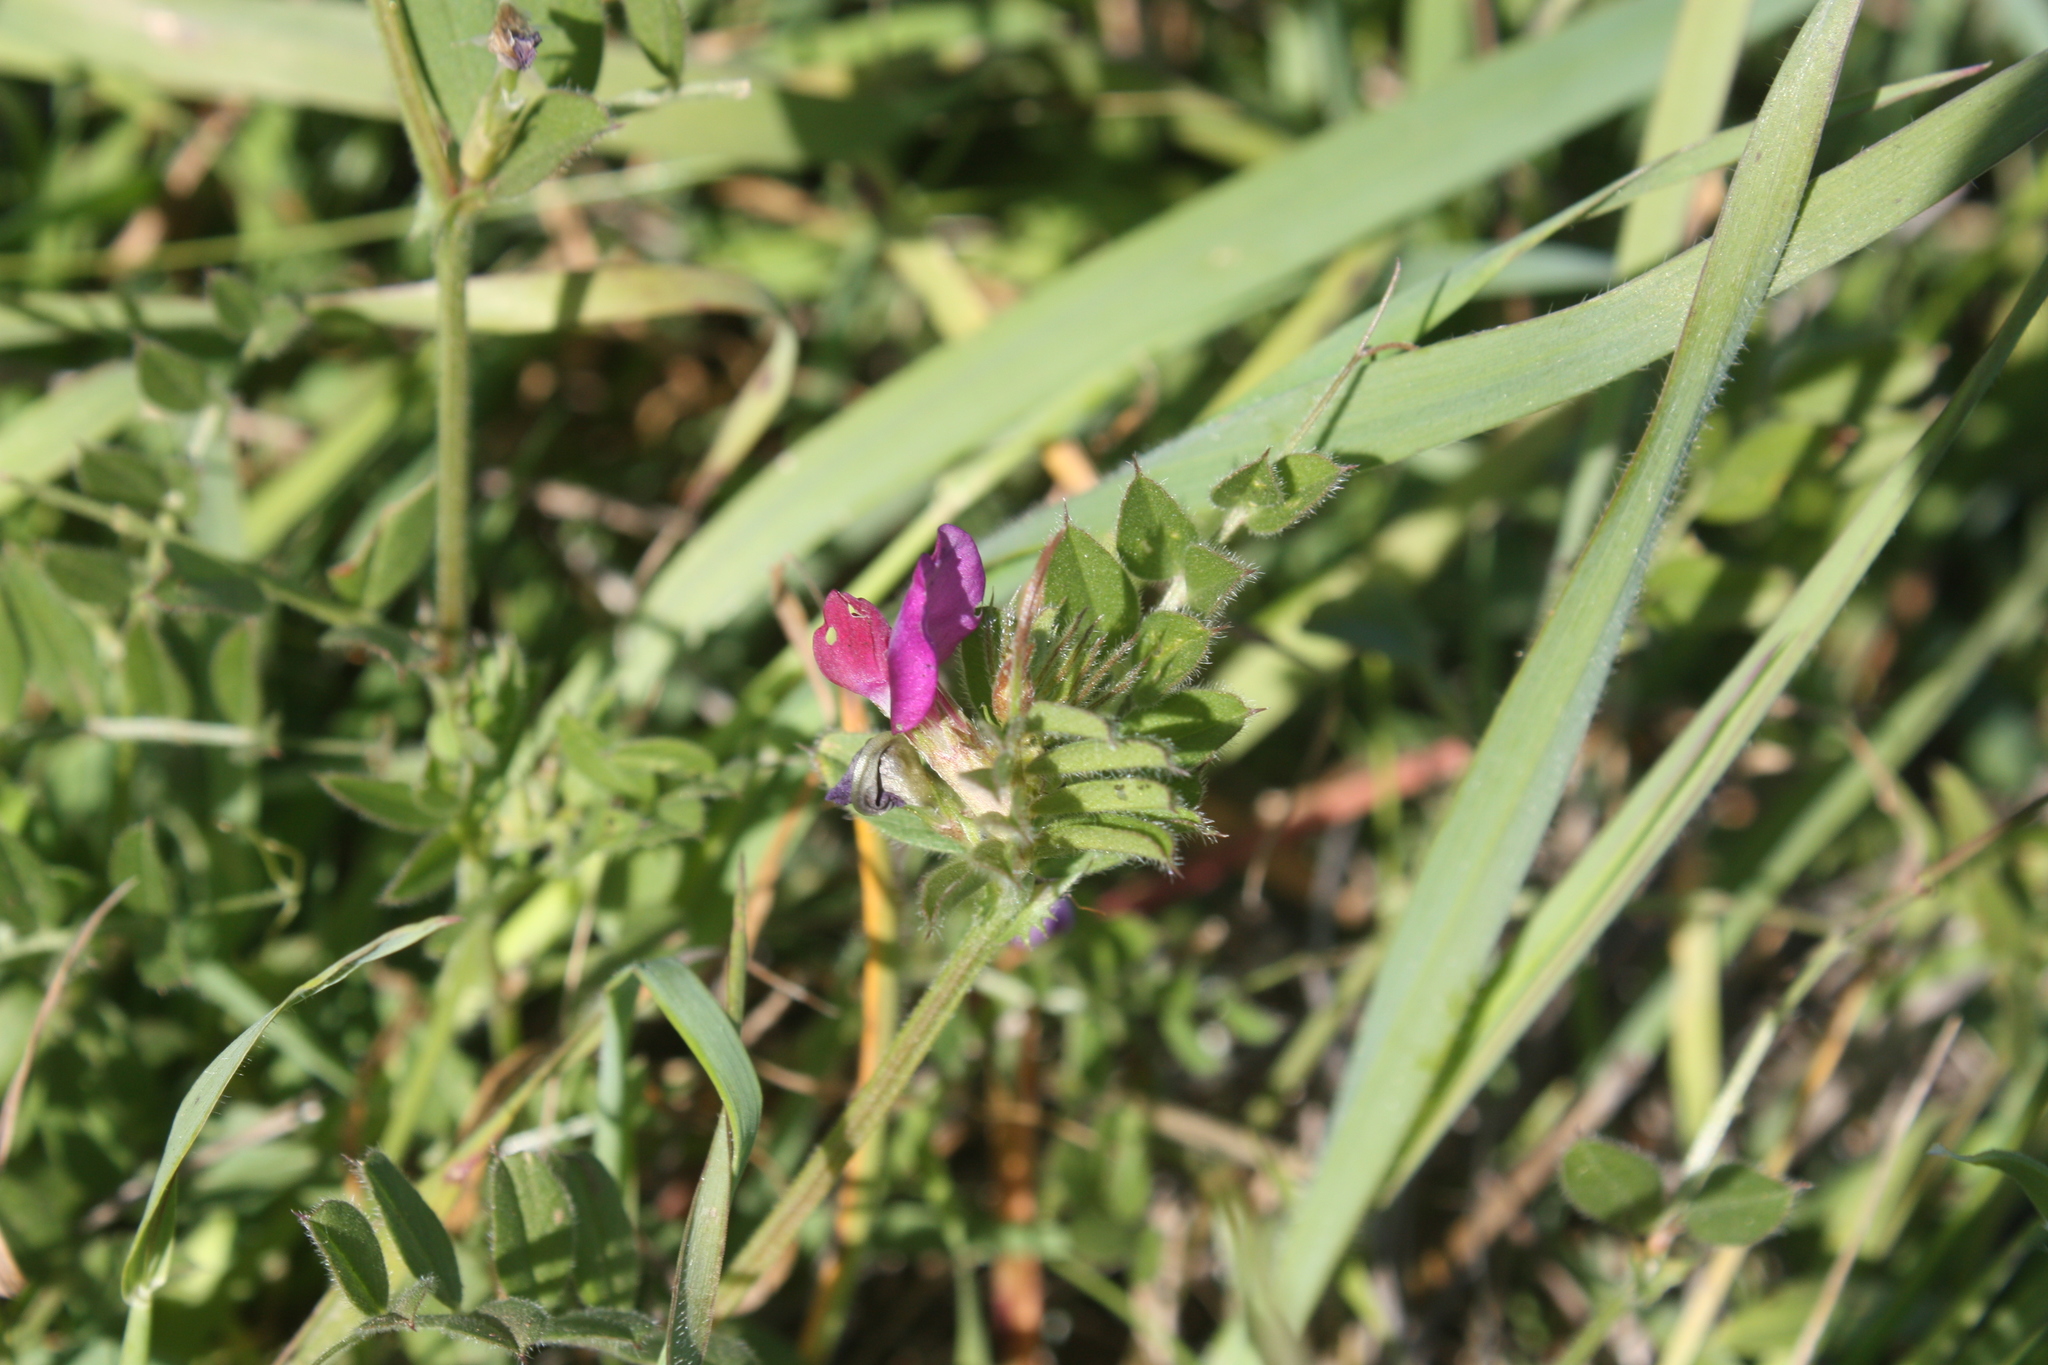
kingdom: Plantae
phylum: Tracheophyta
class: Magnoliopsida
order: Fabales
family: Fabaceae
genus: Vicia
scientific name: Vicia sativa
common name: Garden vetch
